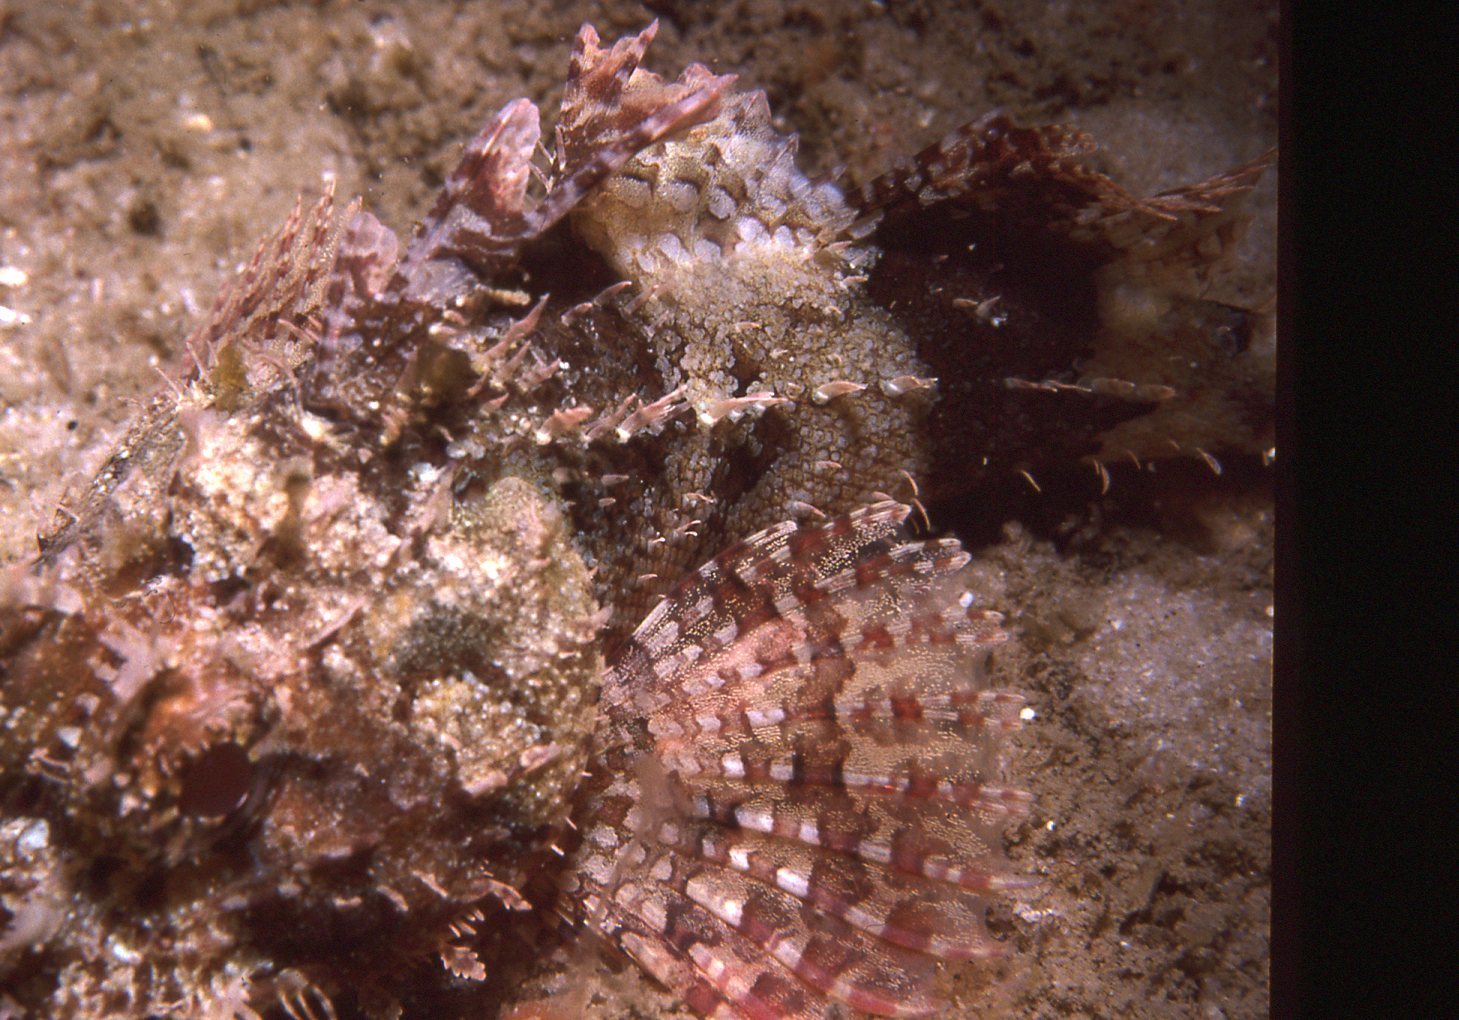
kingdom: Animalia
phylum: Chordata
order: Scorpaeniformes
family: Scorpaenidae
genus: Scorpaena
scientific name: Scorpaena jacksoniensis
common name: Eastern red scorpionfish
